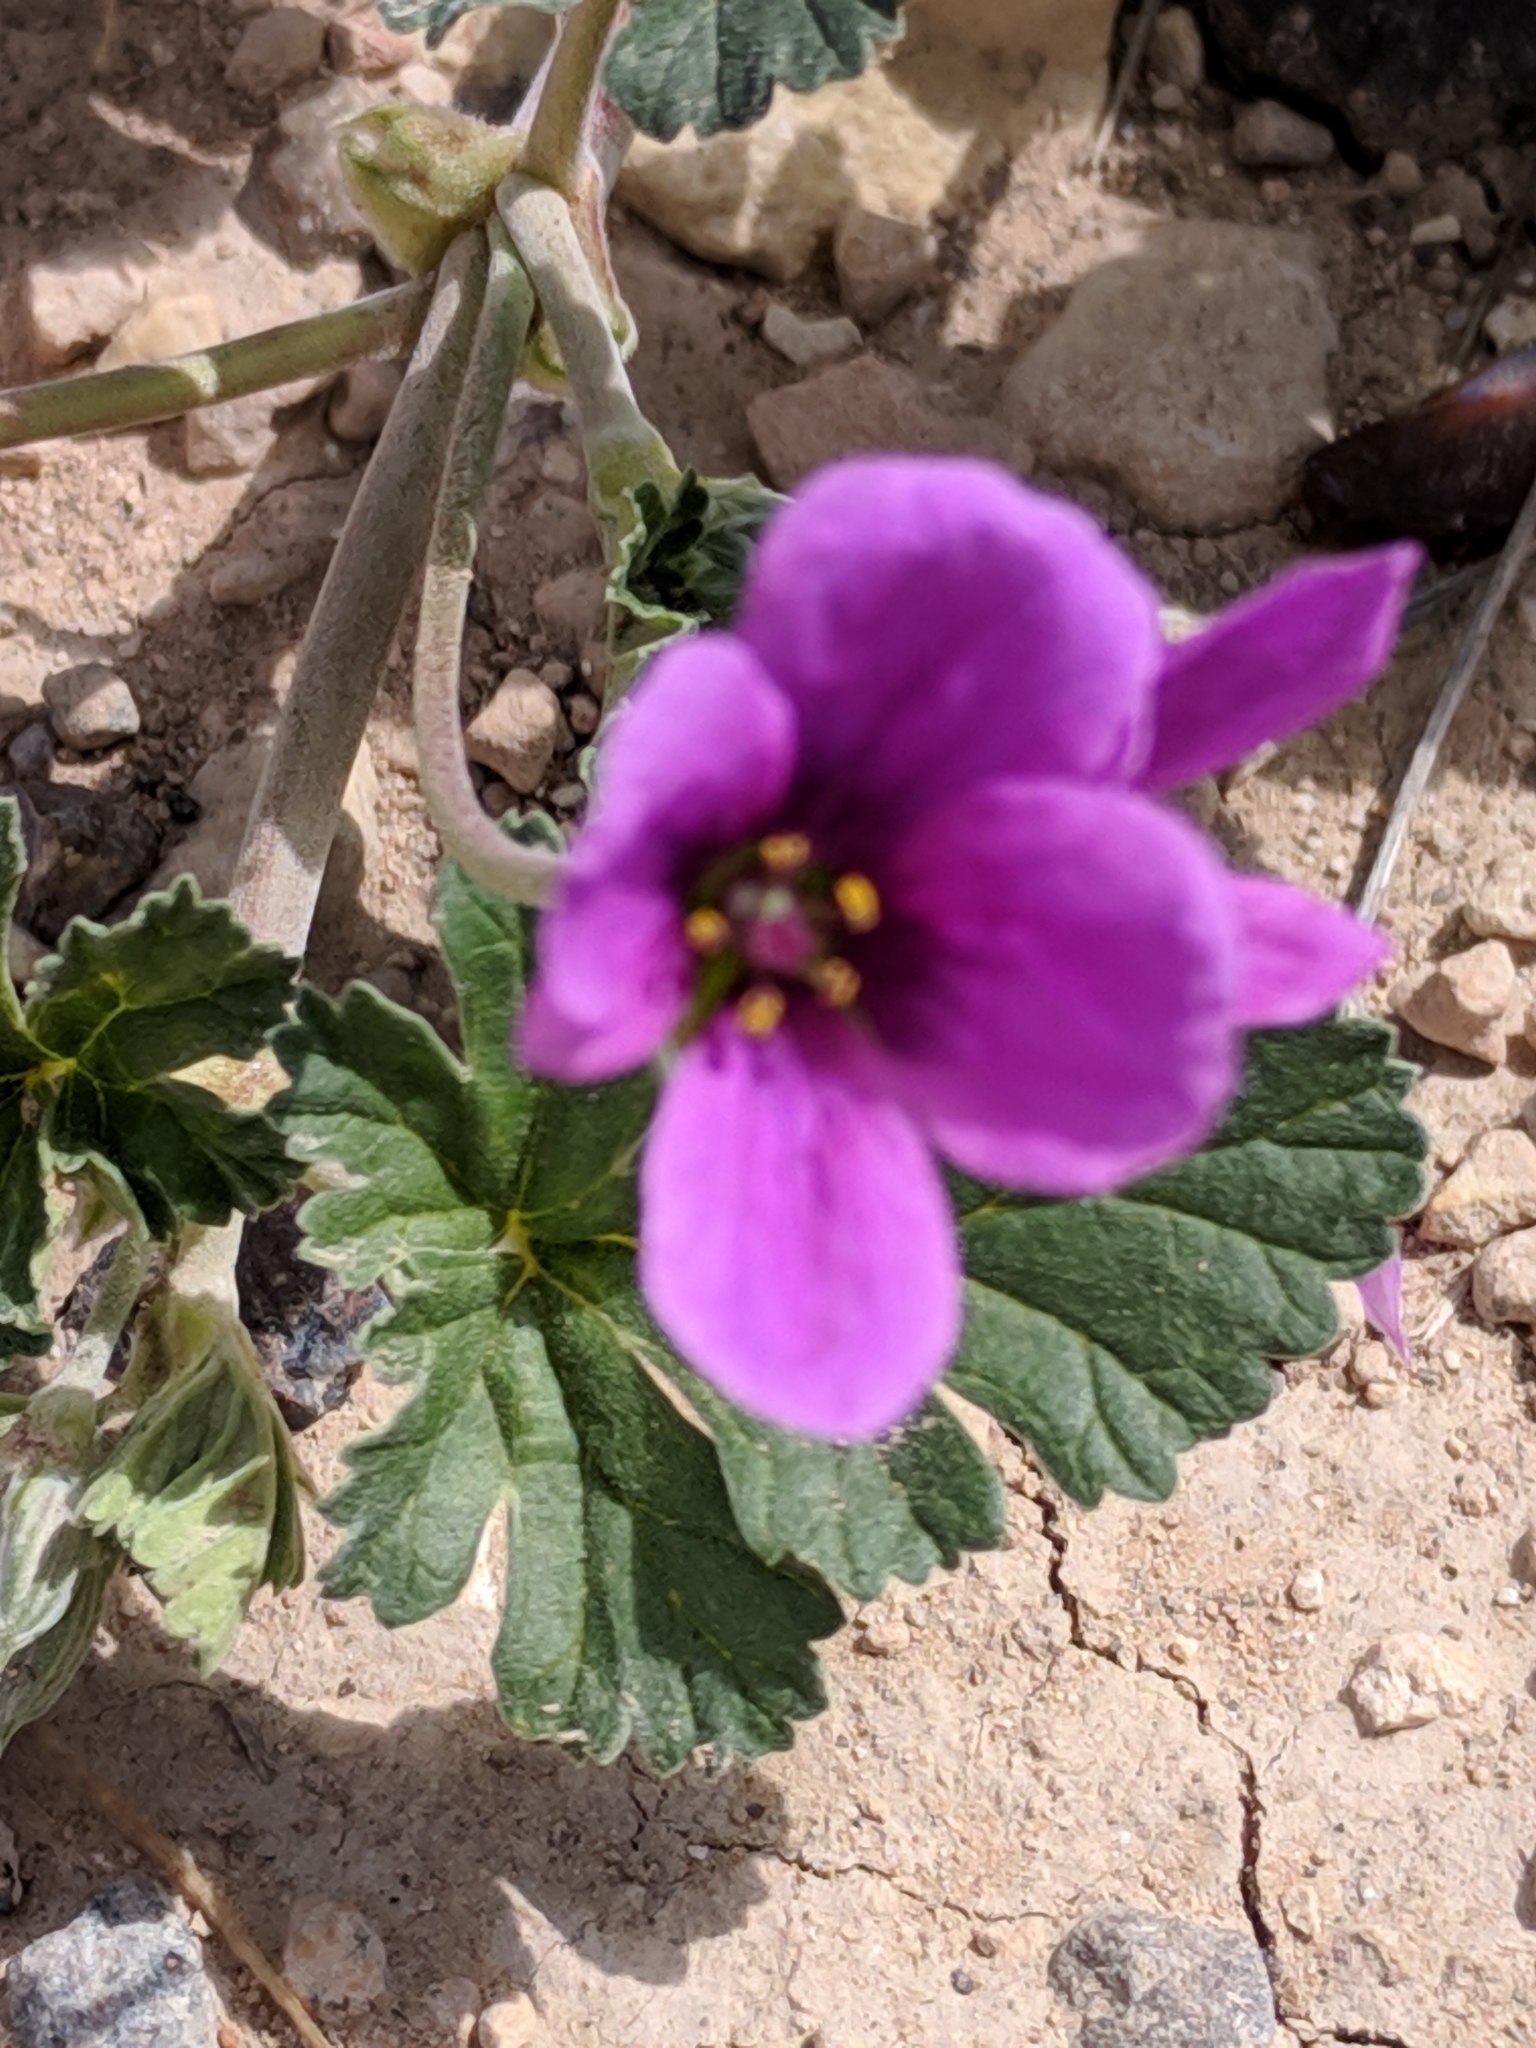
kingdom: Plantae
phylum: Tracheophyta
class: Magnoliopsida
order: Geraniales
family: Geraniaceae
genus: Erodium
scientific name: Erodium texanum
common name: Texas stork's-bill
